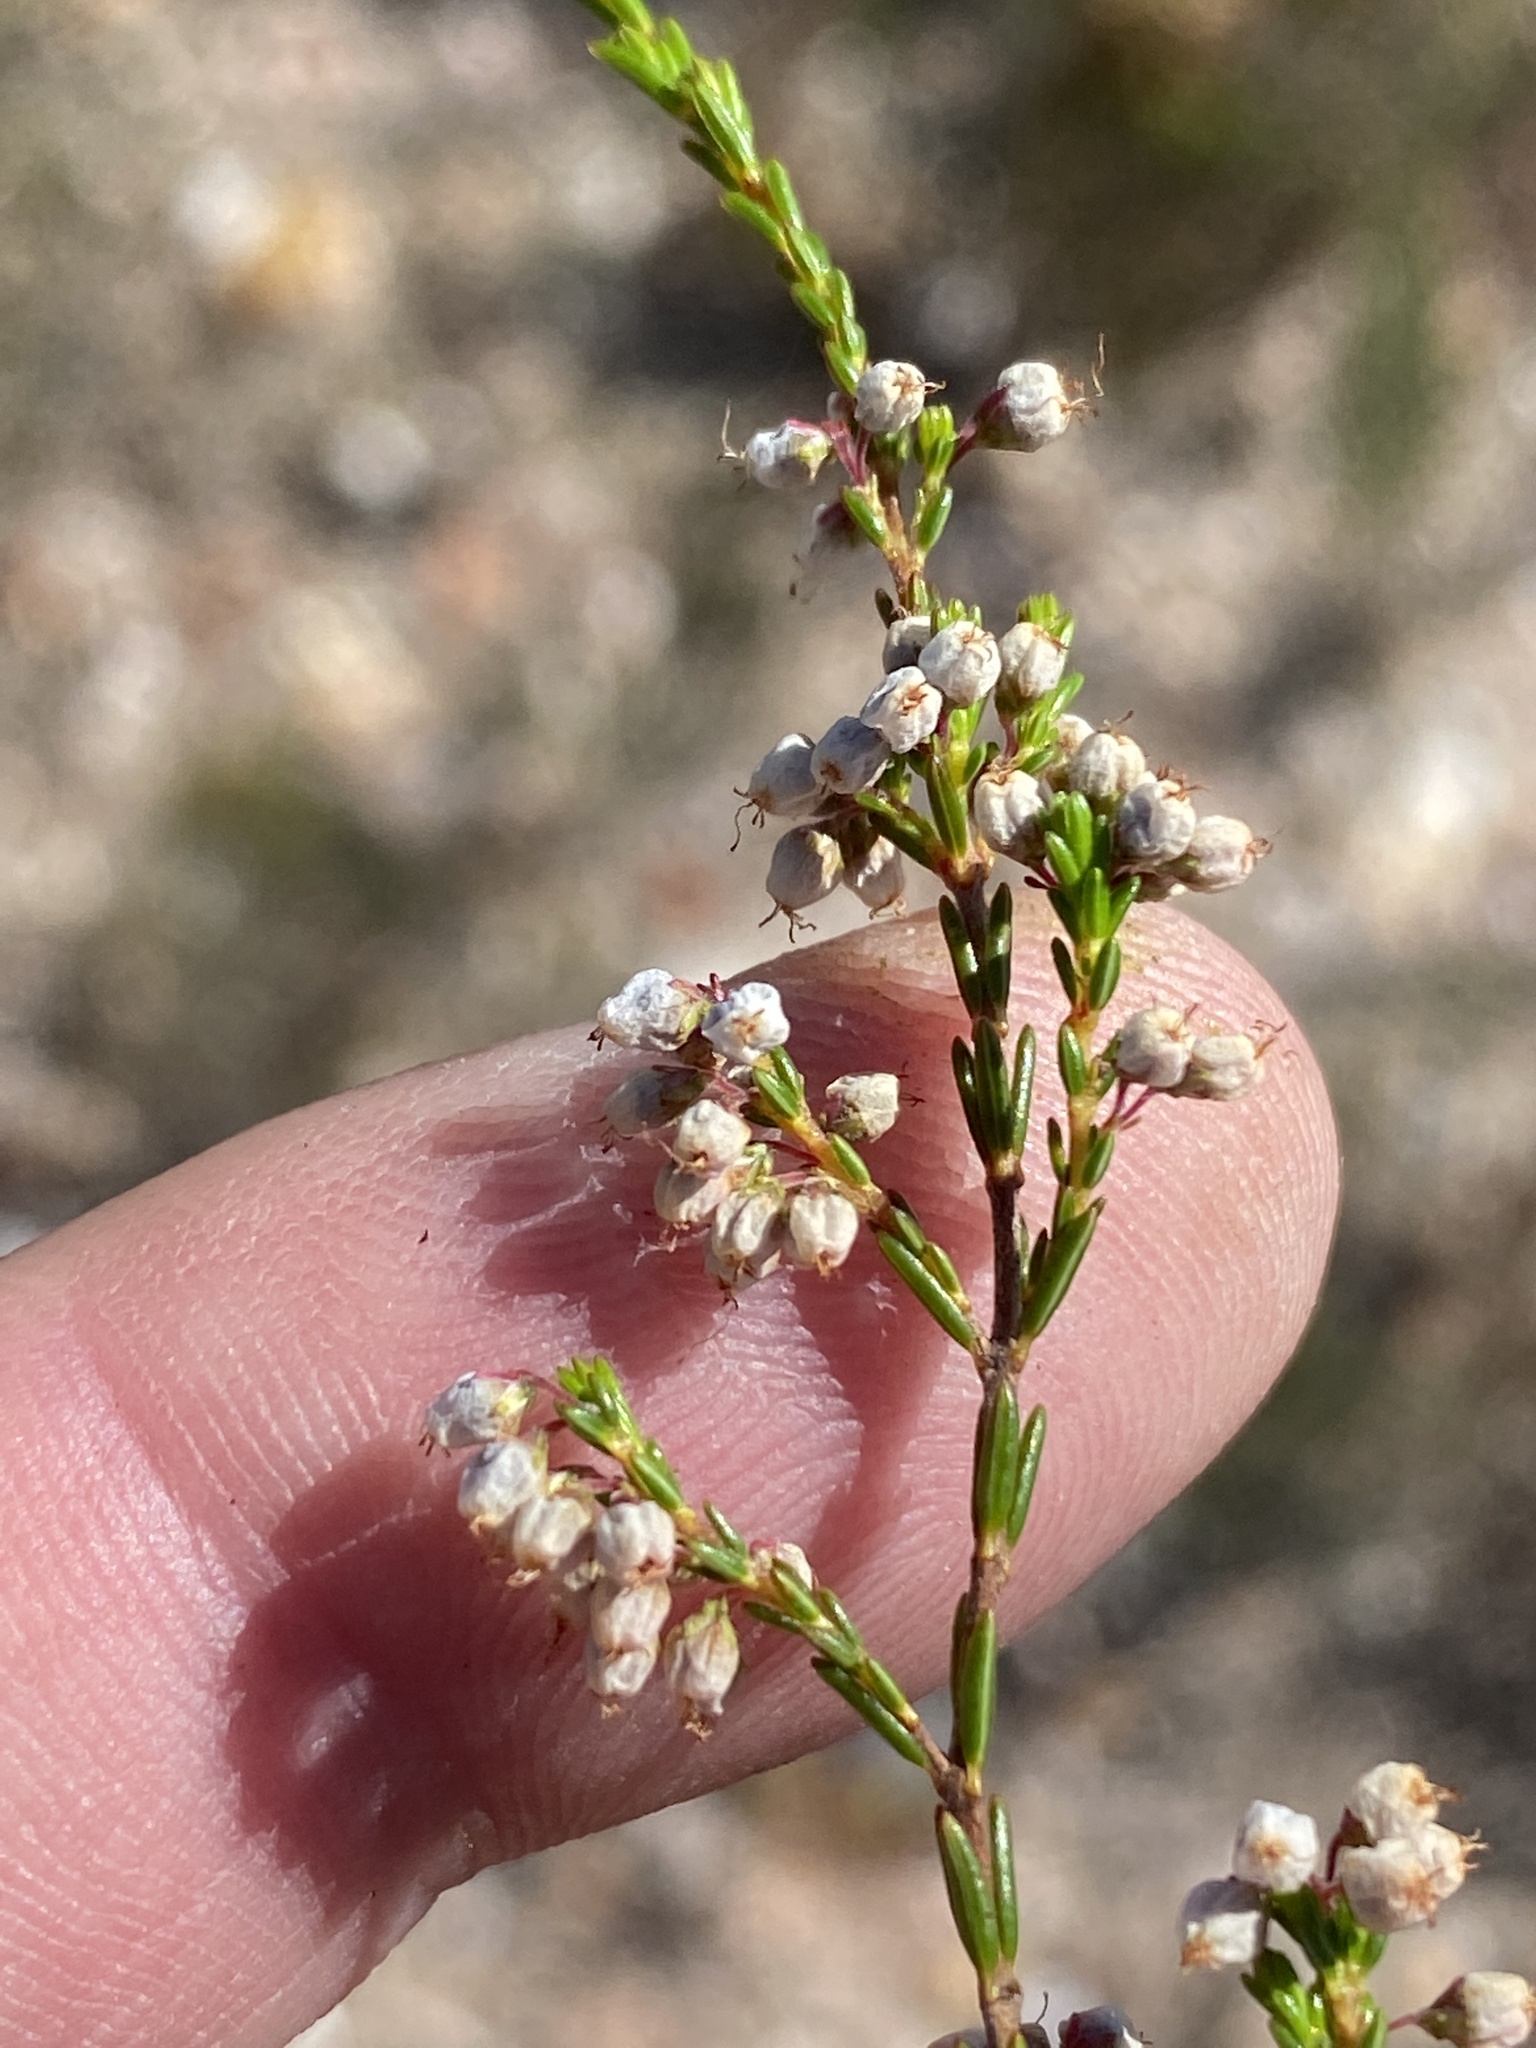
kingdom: Plantae
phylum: Tracheophyta
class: Magnoliopsida
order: Ericales
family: Ericaceae
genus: Erica
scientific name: Erica rosacea
